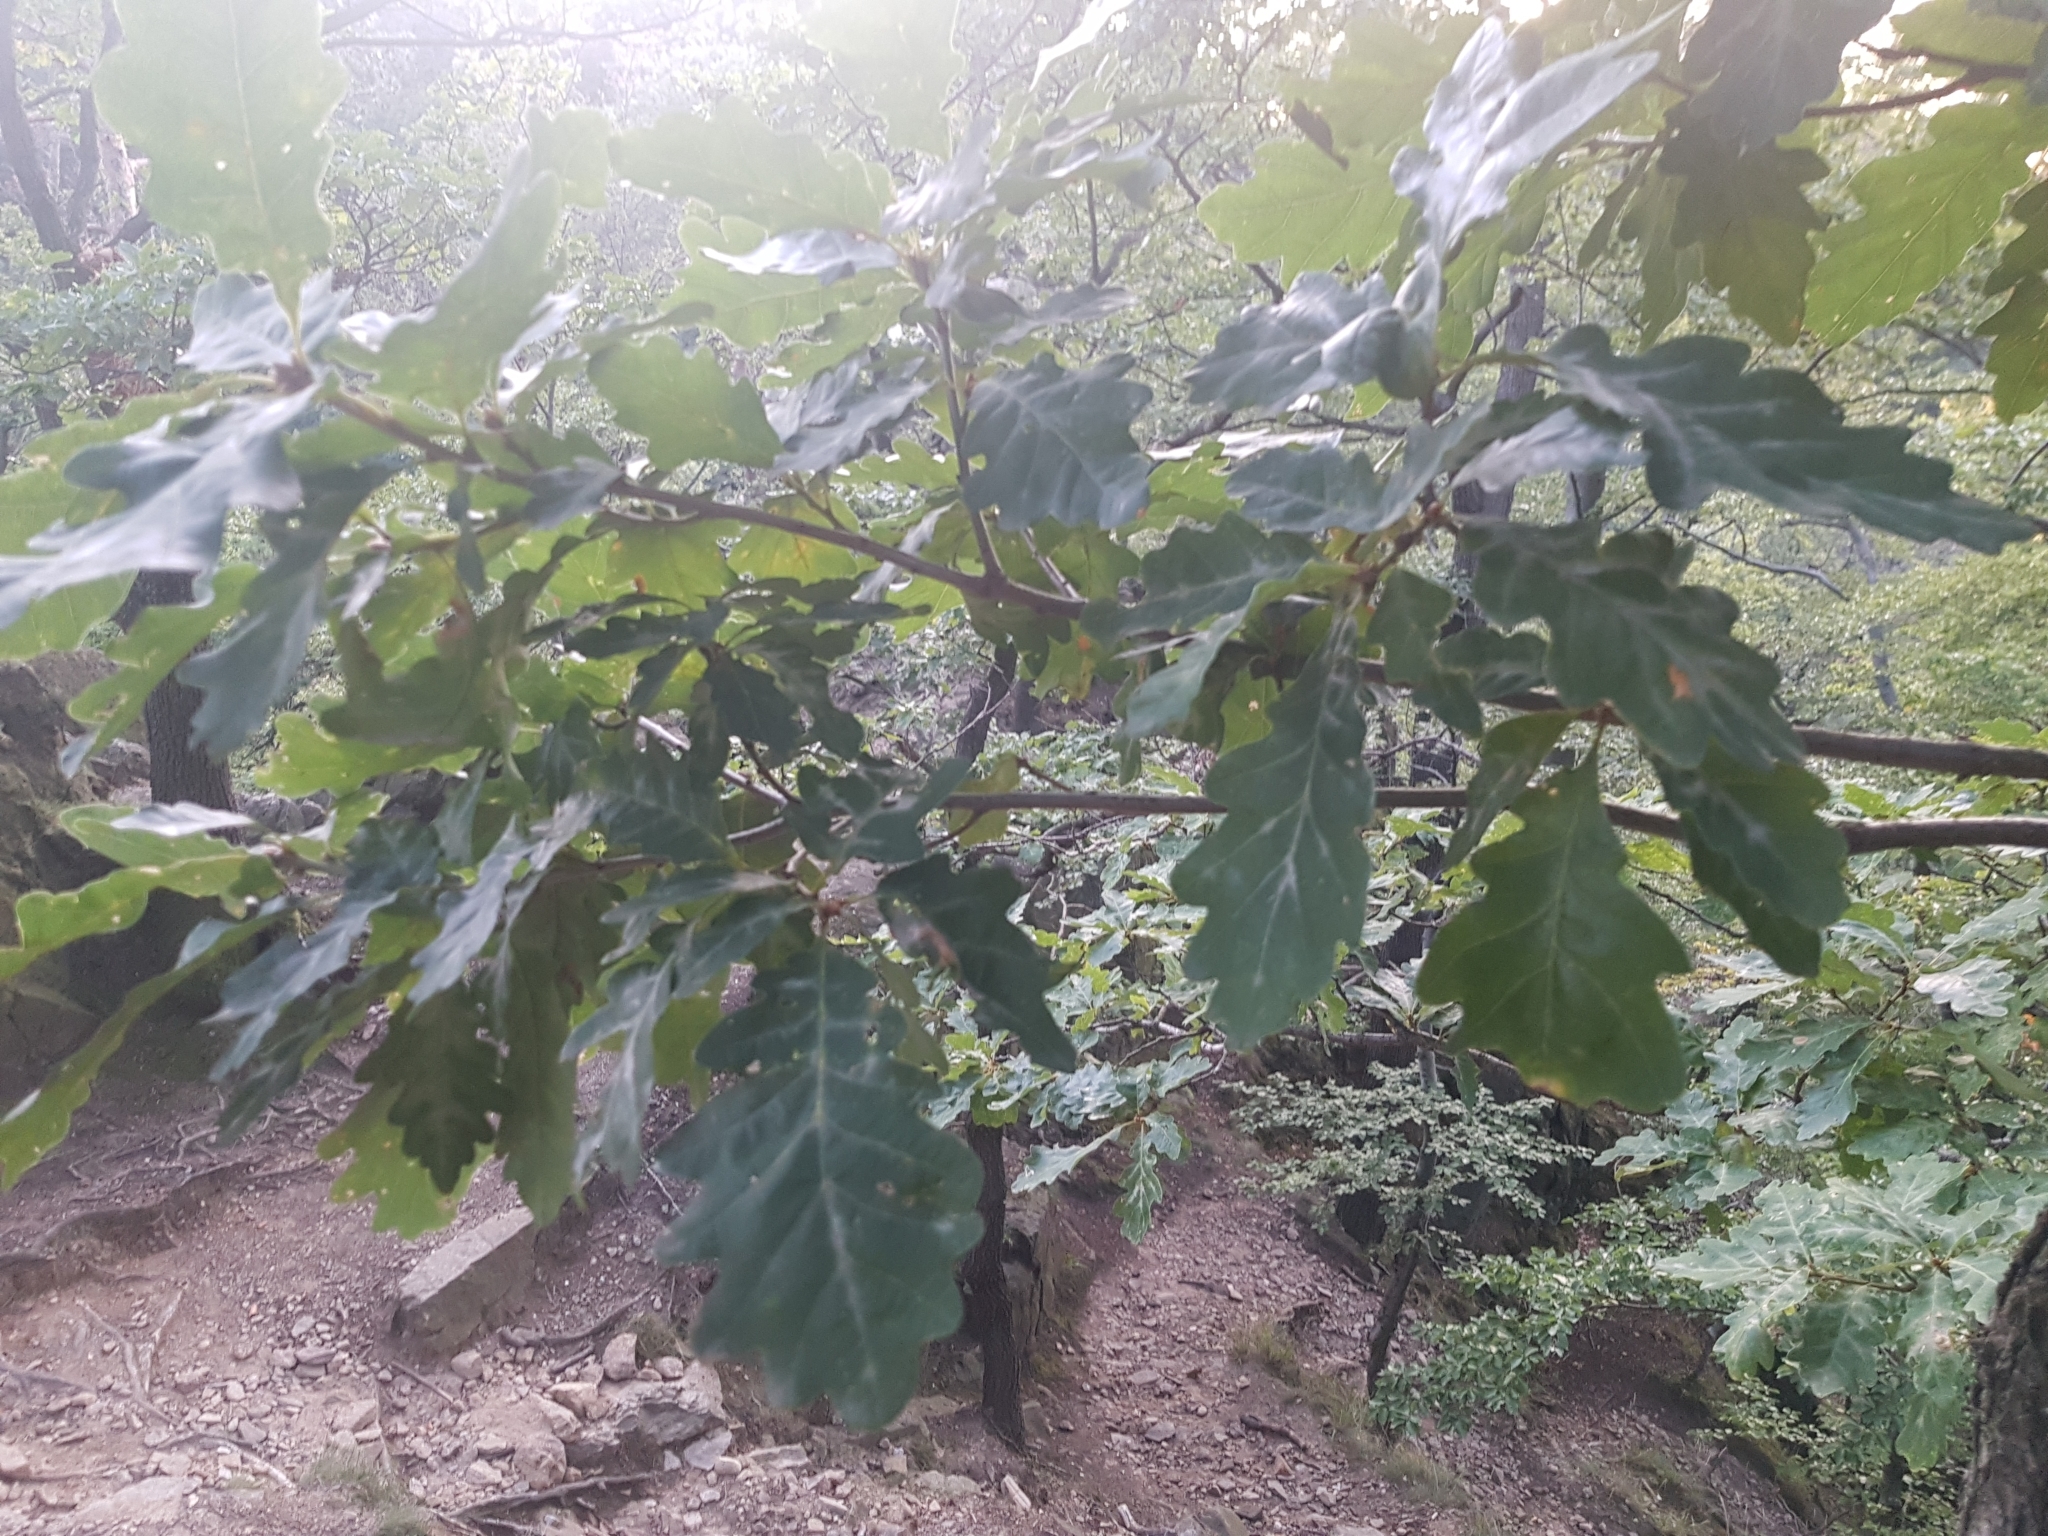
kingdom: Plantae
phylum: Tracheophyta
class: Magnoliopsida
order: Fagales
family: Fagaceae
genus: Quercus
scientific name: Quercus petraea
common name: Sessile oak
